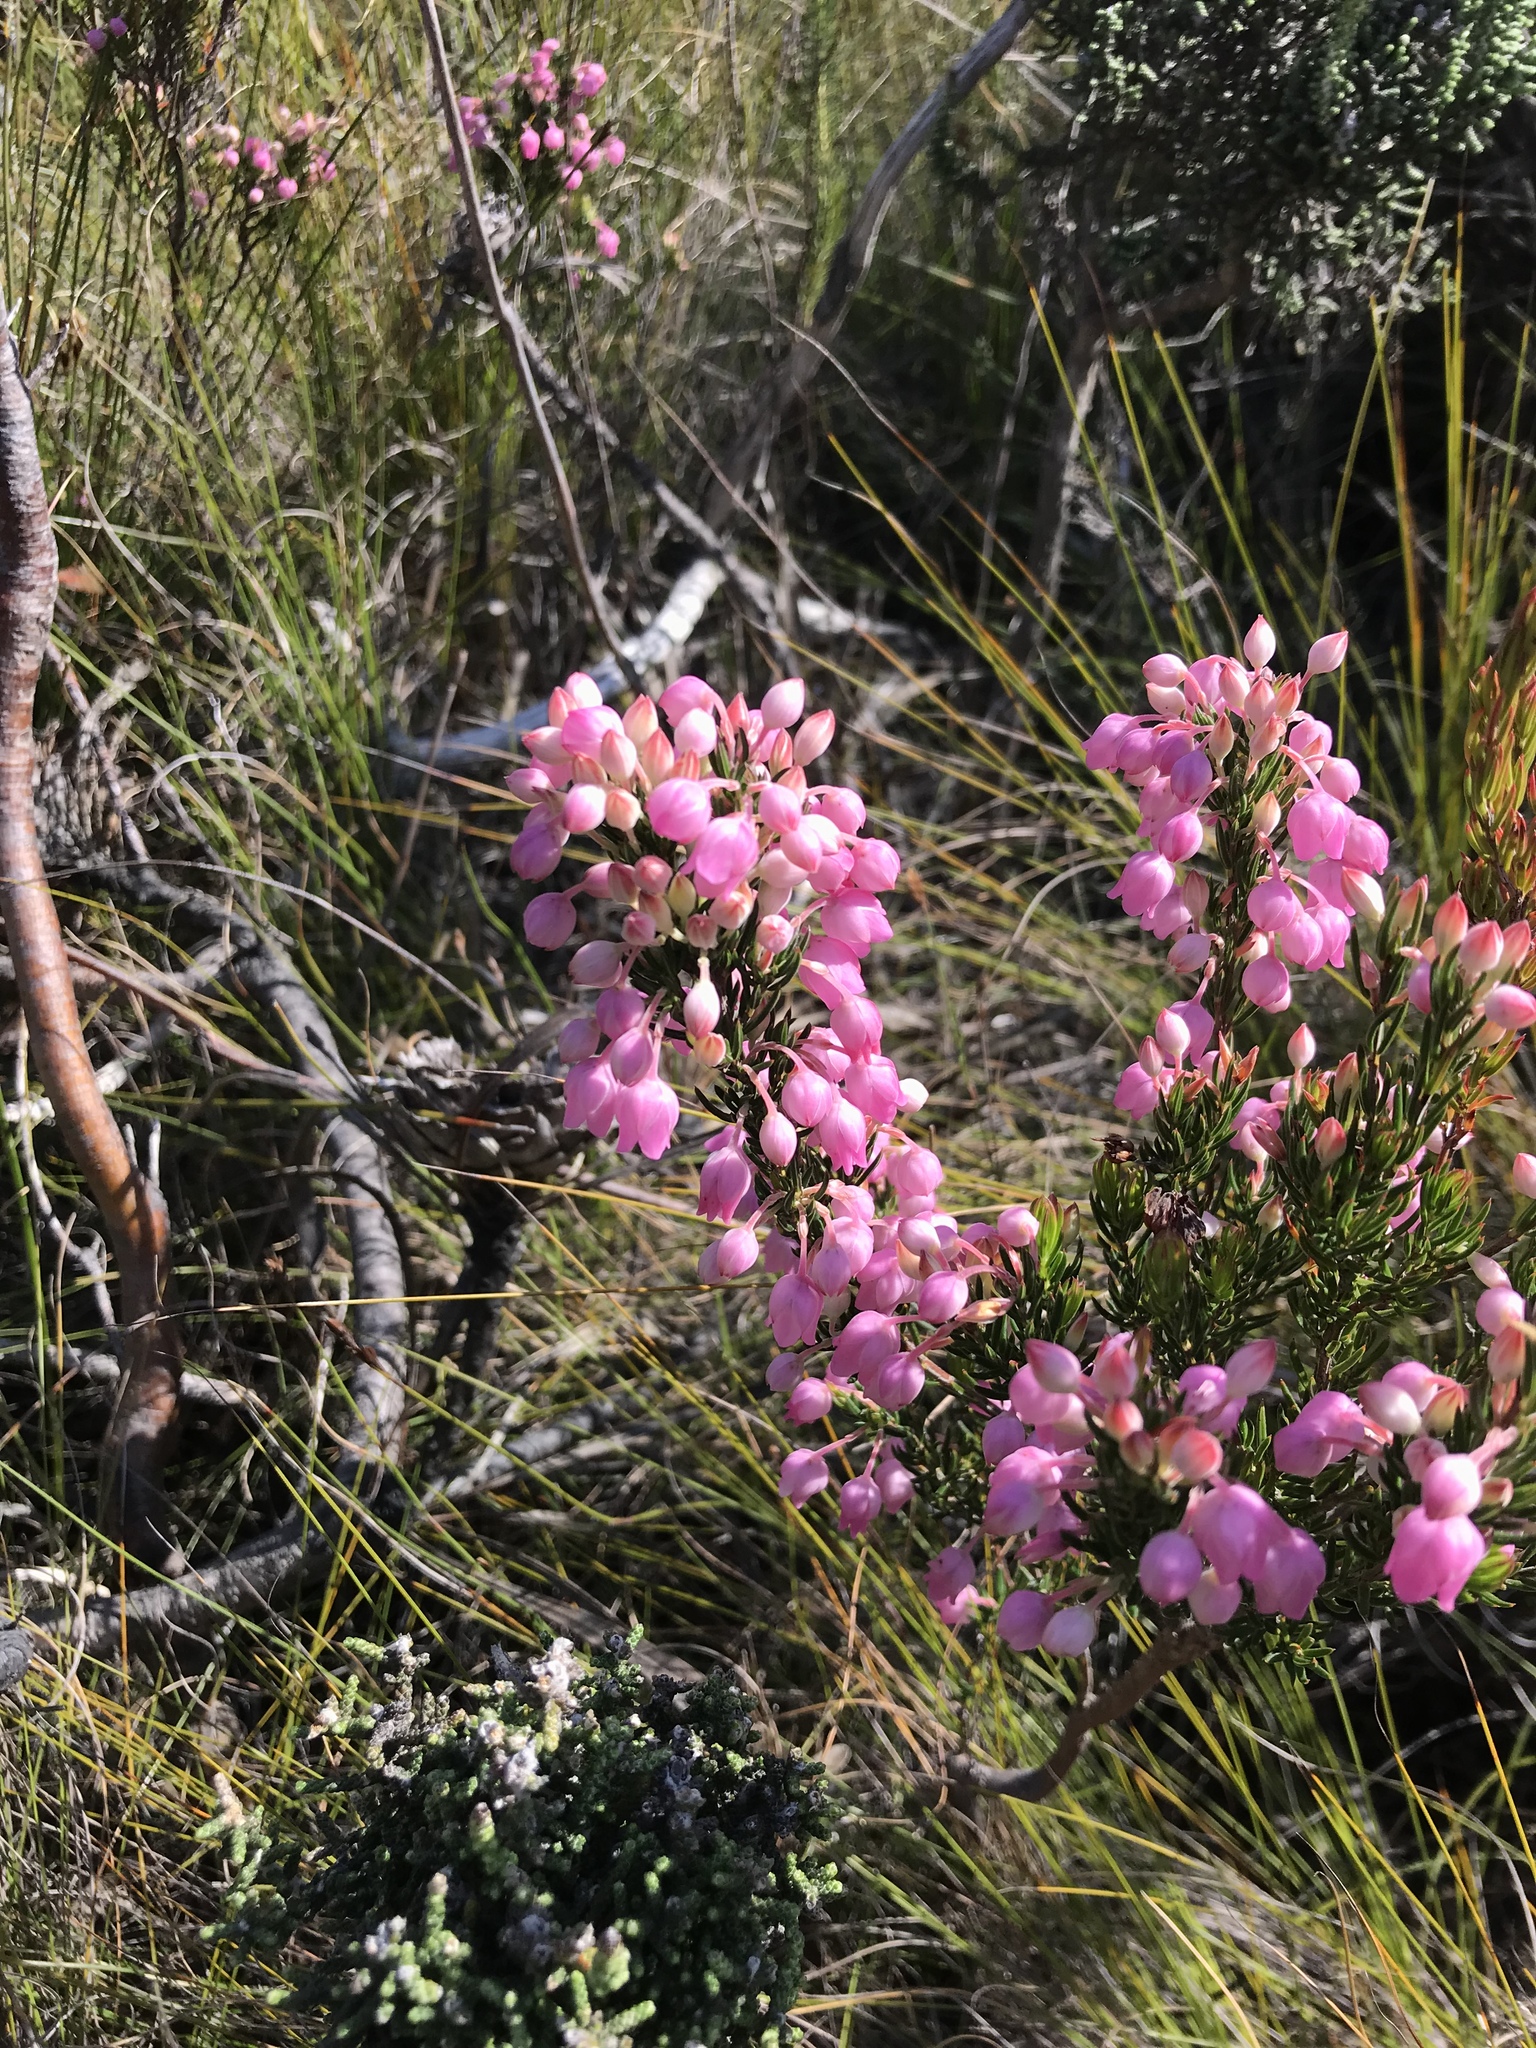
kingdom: Plantae
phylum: Tracheophyta
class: Magnoliopsida
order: Ericales
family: Ericaceae
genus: Erica
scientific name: Erica holosericea
